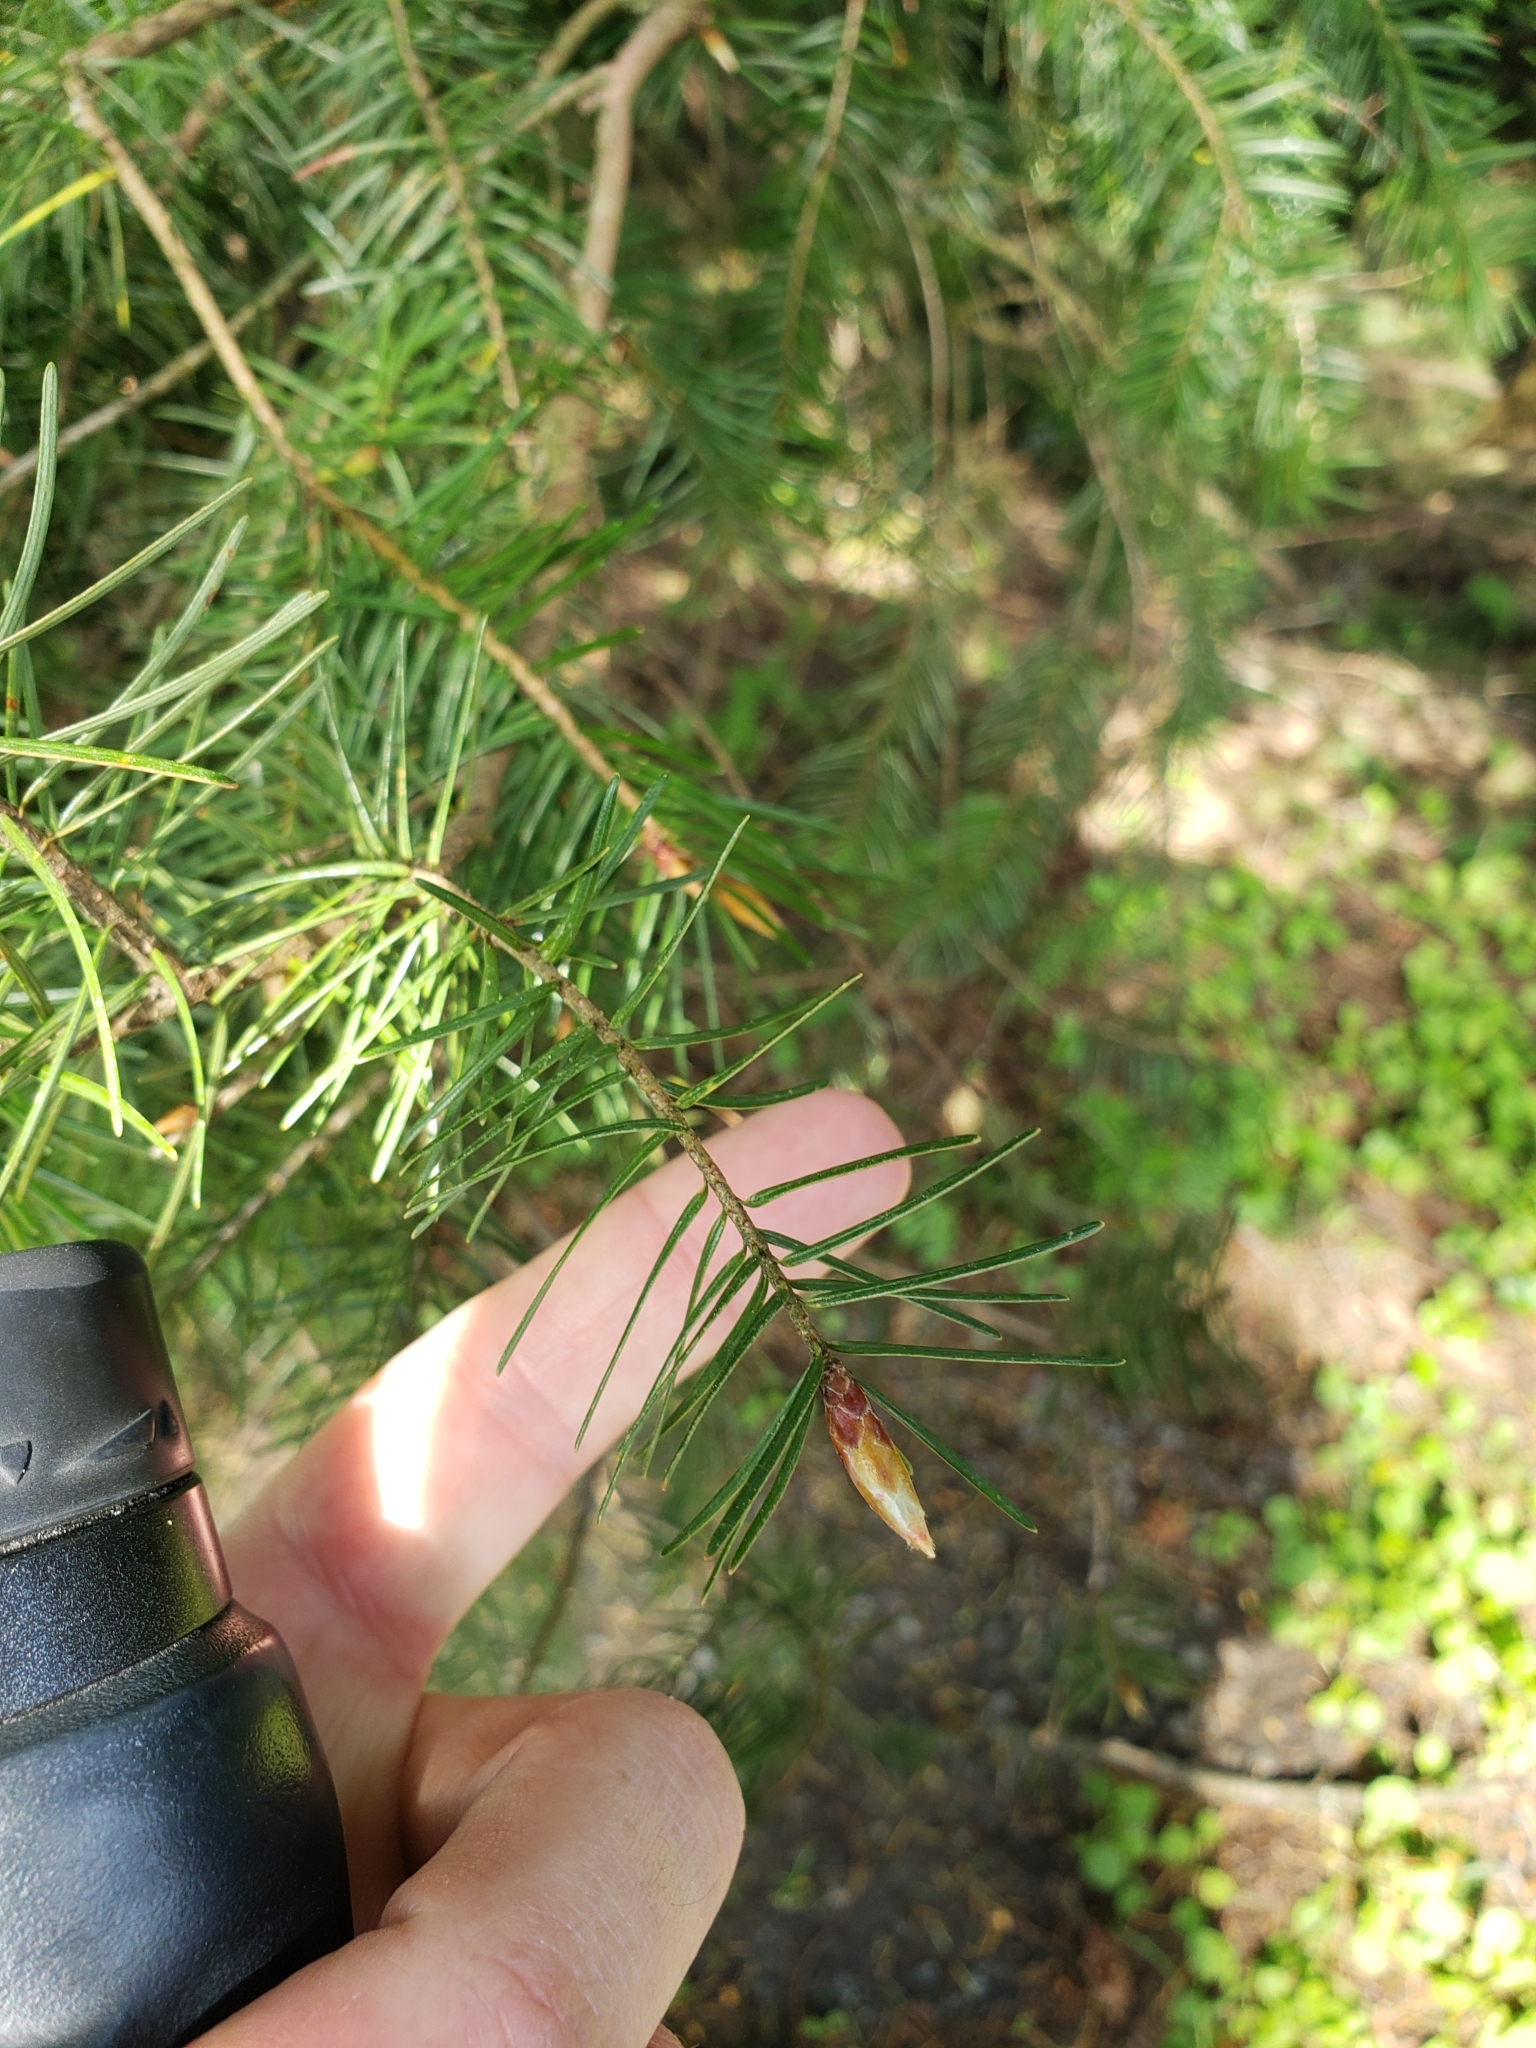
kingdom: Plantae
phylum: Tracheophyta
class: Pinopsida
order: Pinales
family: Pinaceae
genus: Pseudotsuga
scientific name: Pseudotsuga menziesii
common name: Douglas fir
